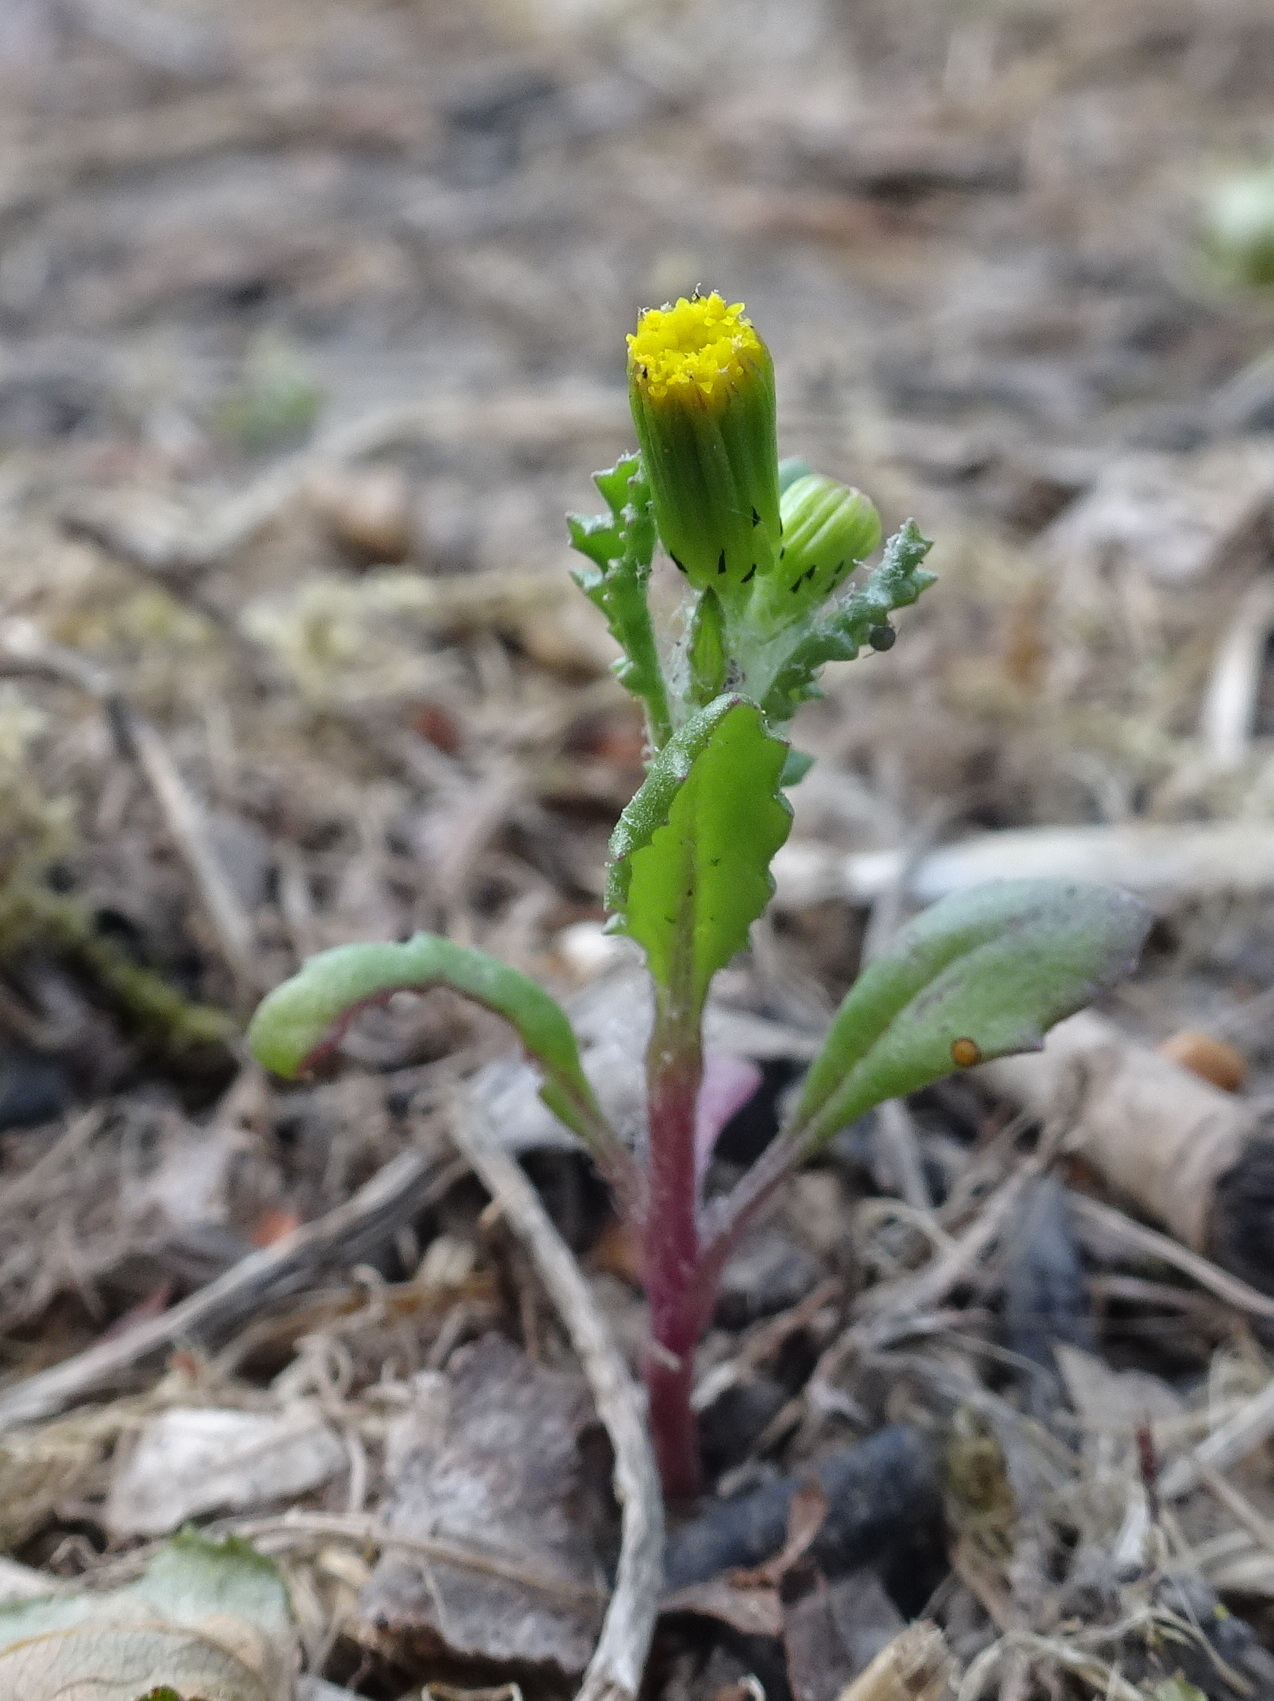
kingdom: Plantae
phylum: Tracheophyta
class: Magnoliopsida
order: Asterales
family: Asteraceae
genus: Senecio
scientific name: Senecio vulgaris
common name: Old-man-in-the-spring
